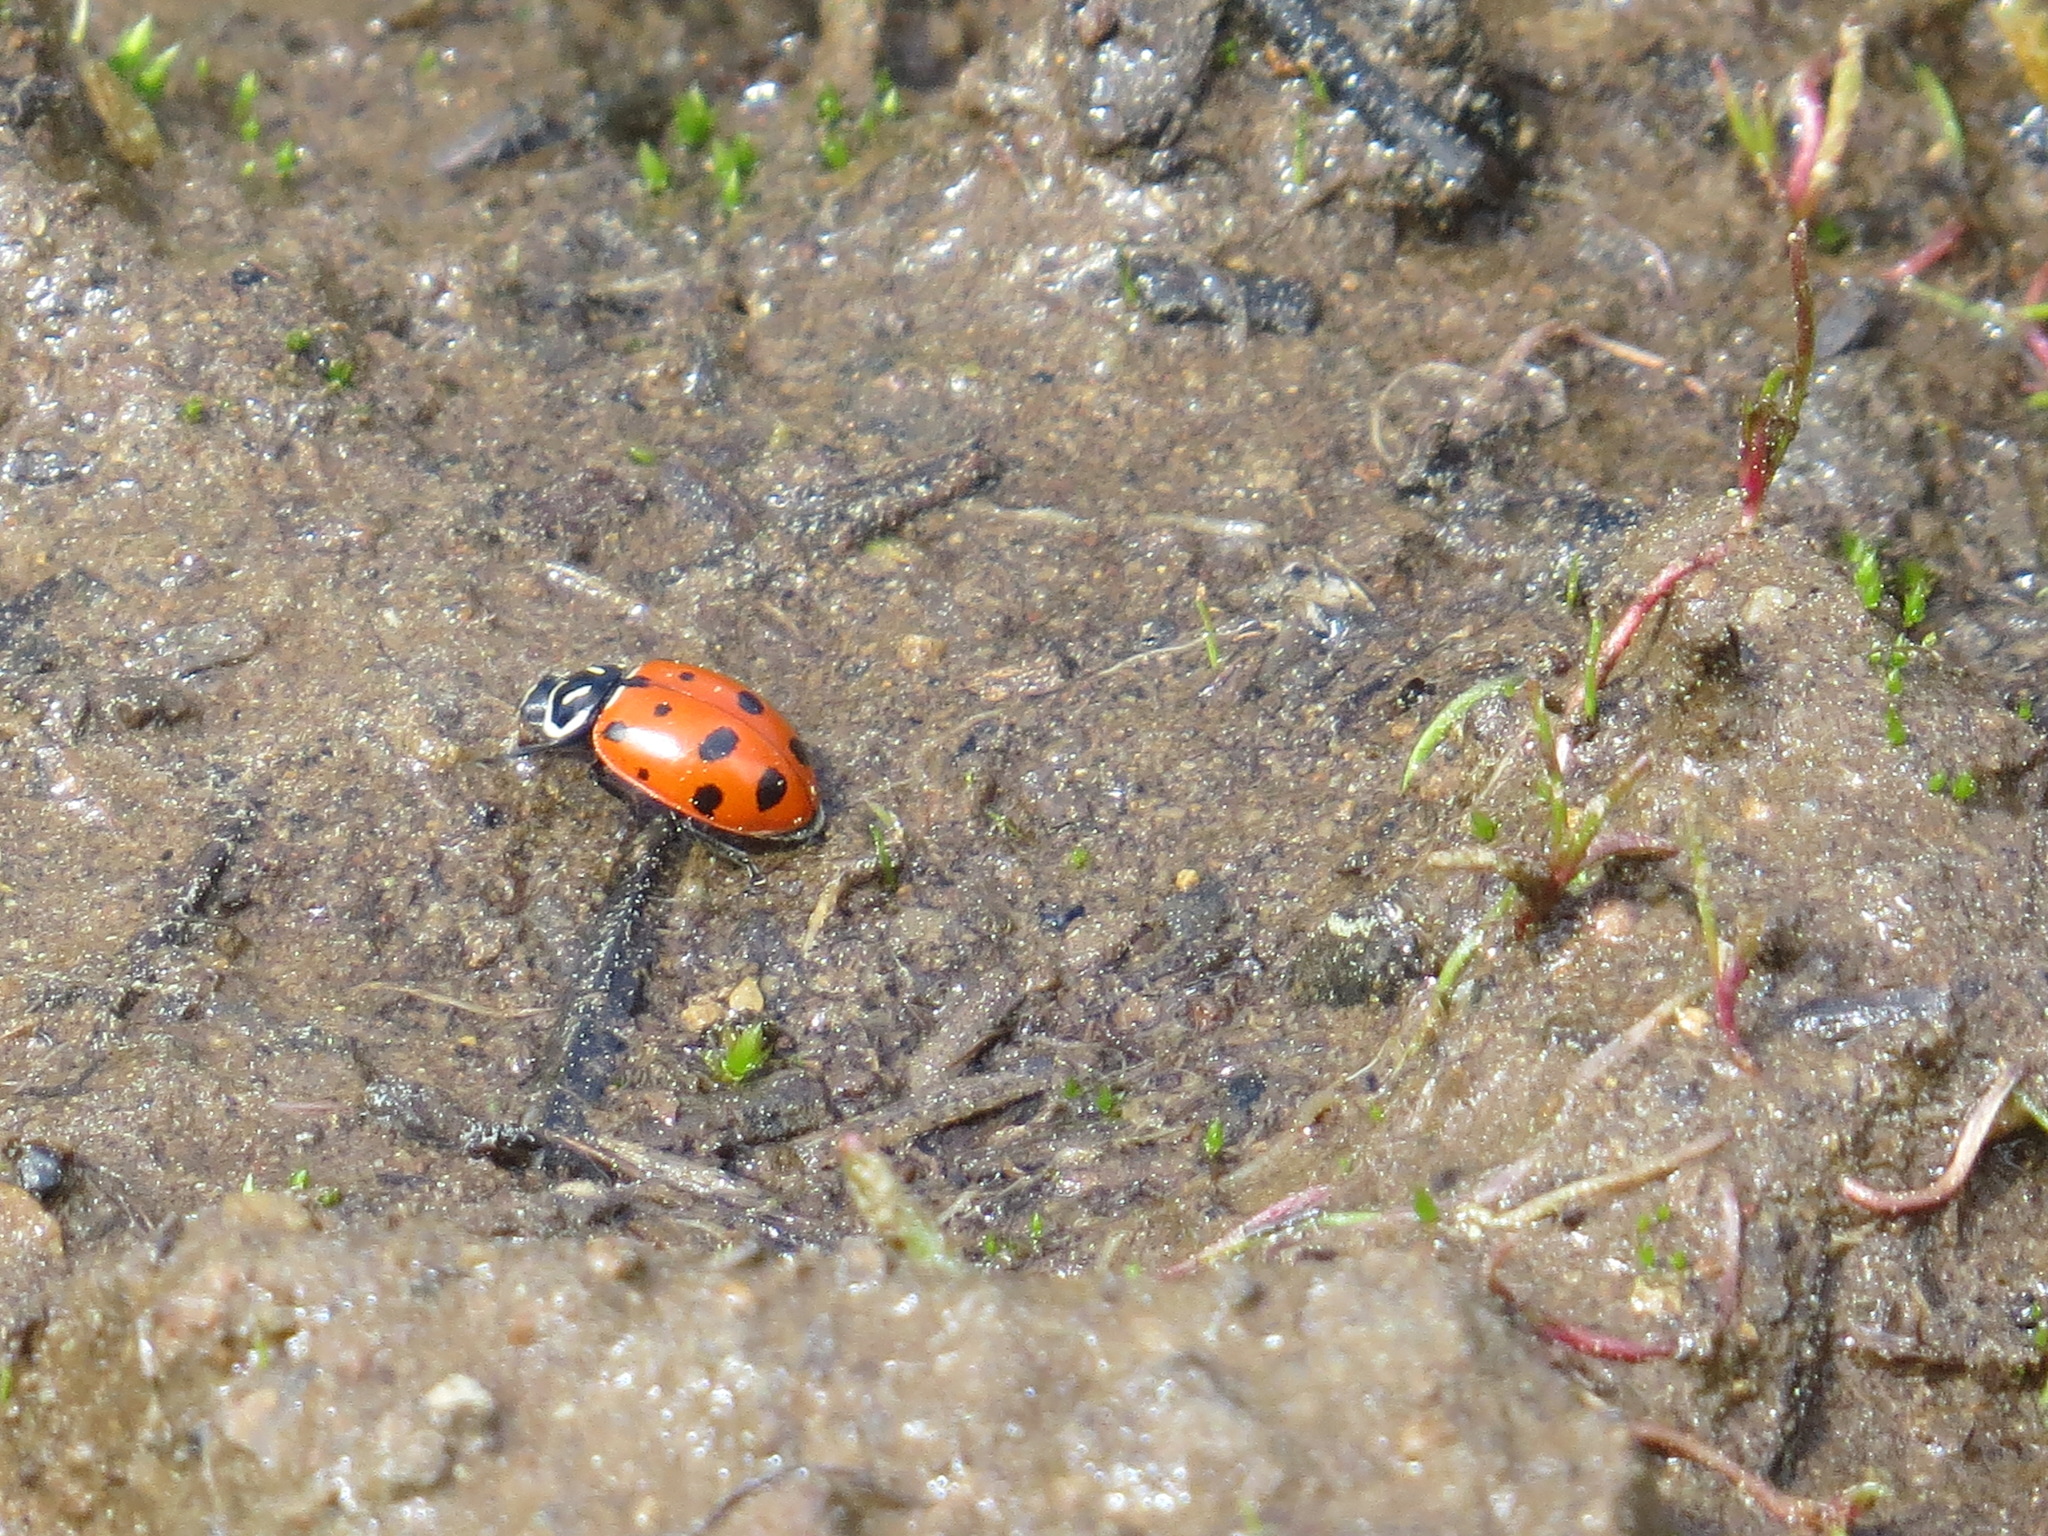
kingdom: Animalia
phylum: Arthropoda
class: Insecta
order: Coleoptera
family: Coccinellidae
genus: Hippodamia
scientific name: Hippodamia convergens
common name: Convergent lady beetle
